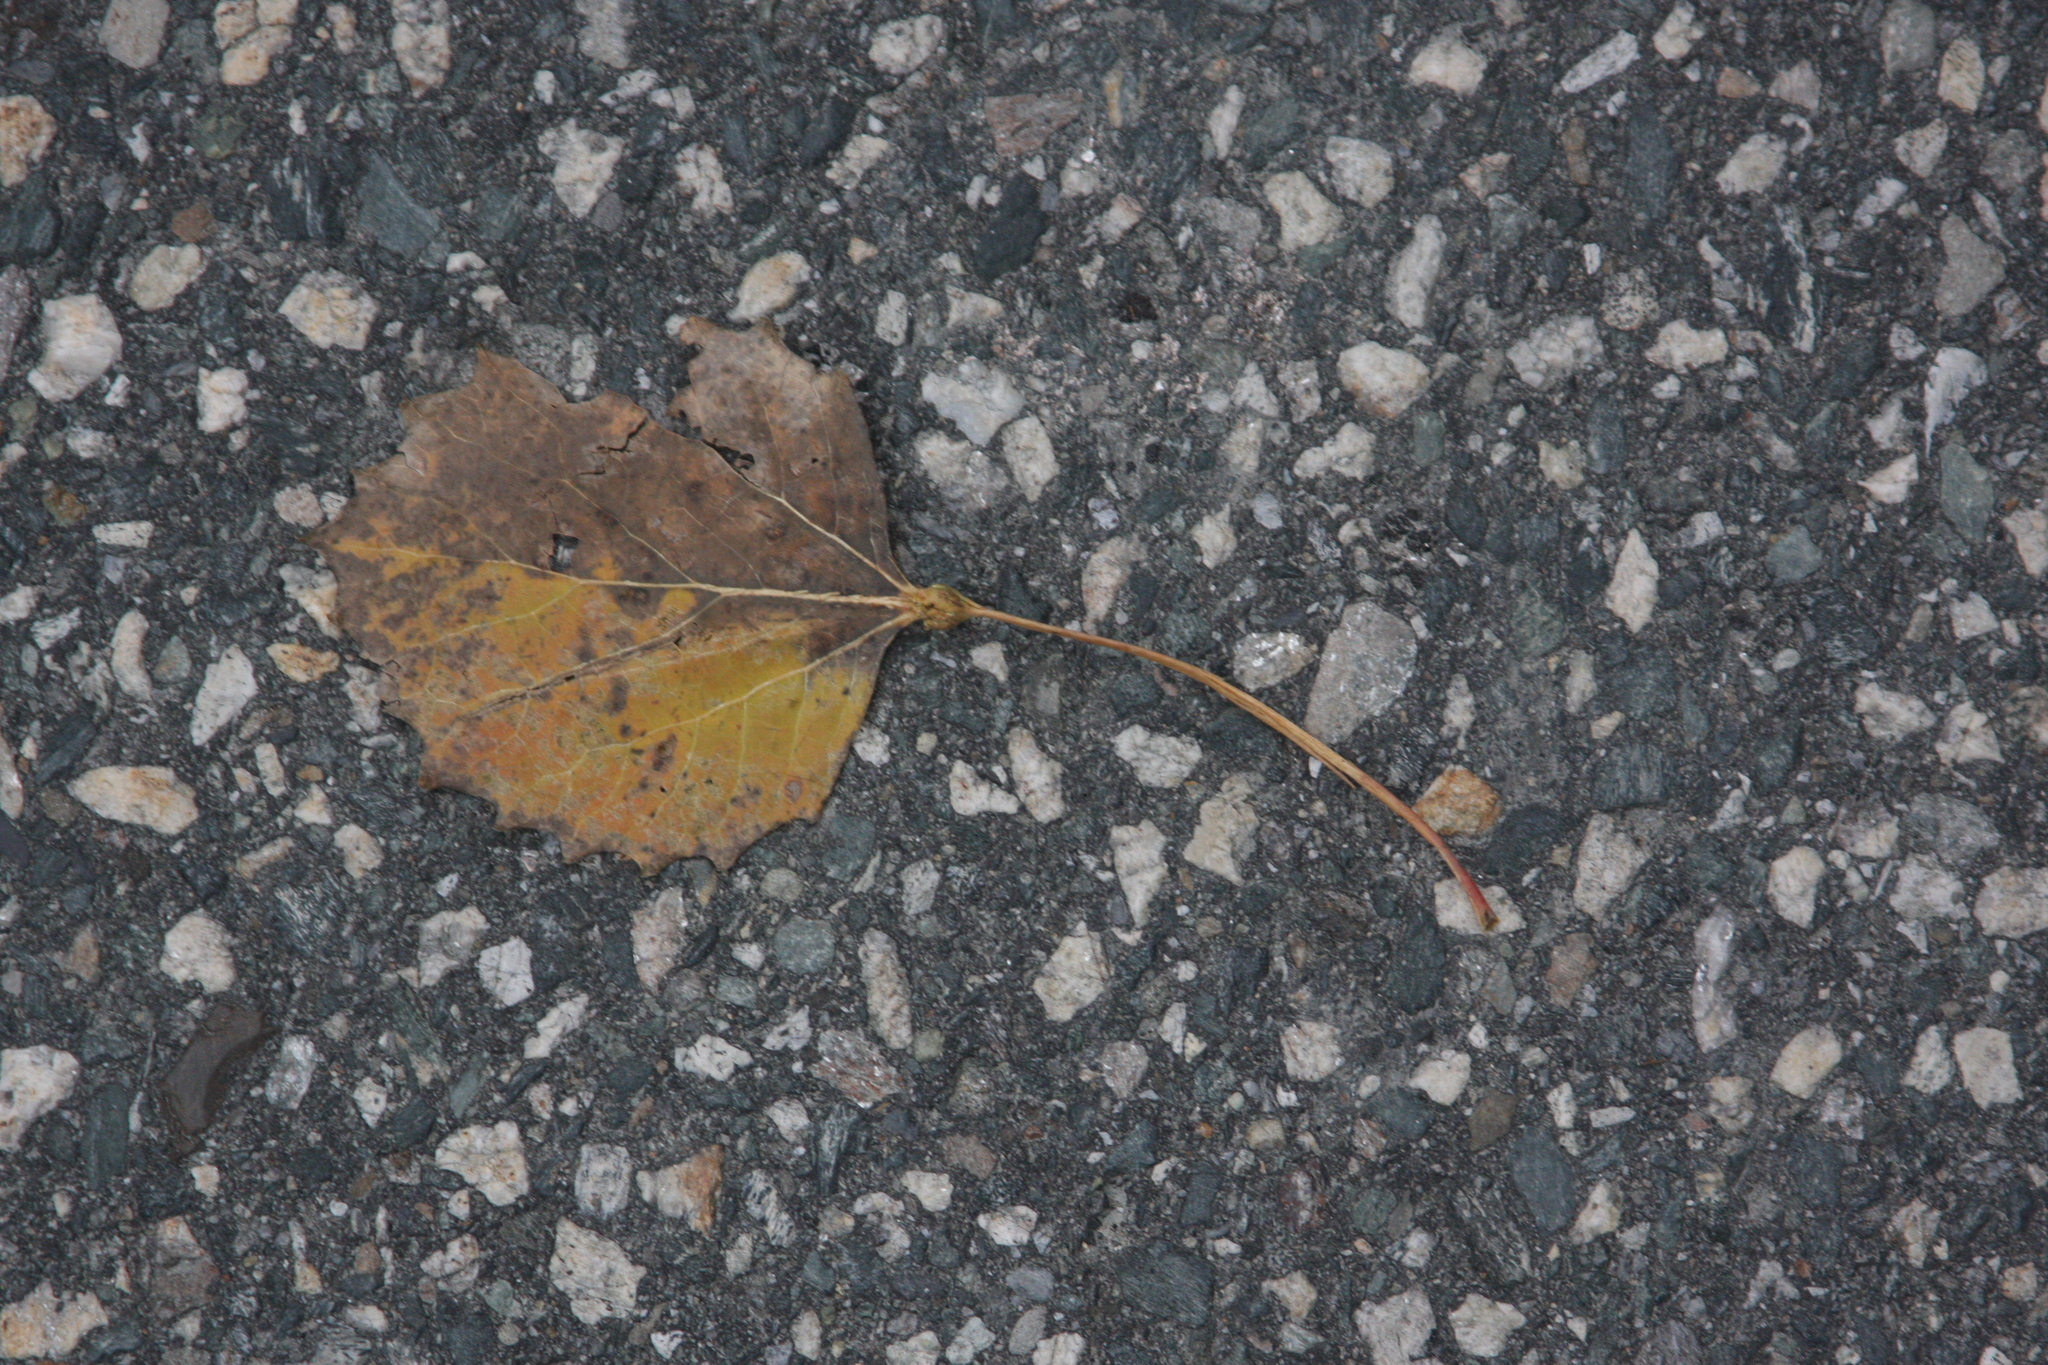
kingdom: Plantae
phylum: Tracheophyta
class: Magnoliopsida
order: Malpighiales
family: Salicaceae
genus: Populus
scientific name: Populus grandidentata
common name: Bigtooth aspen
